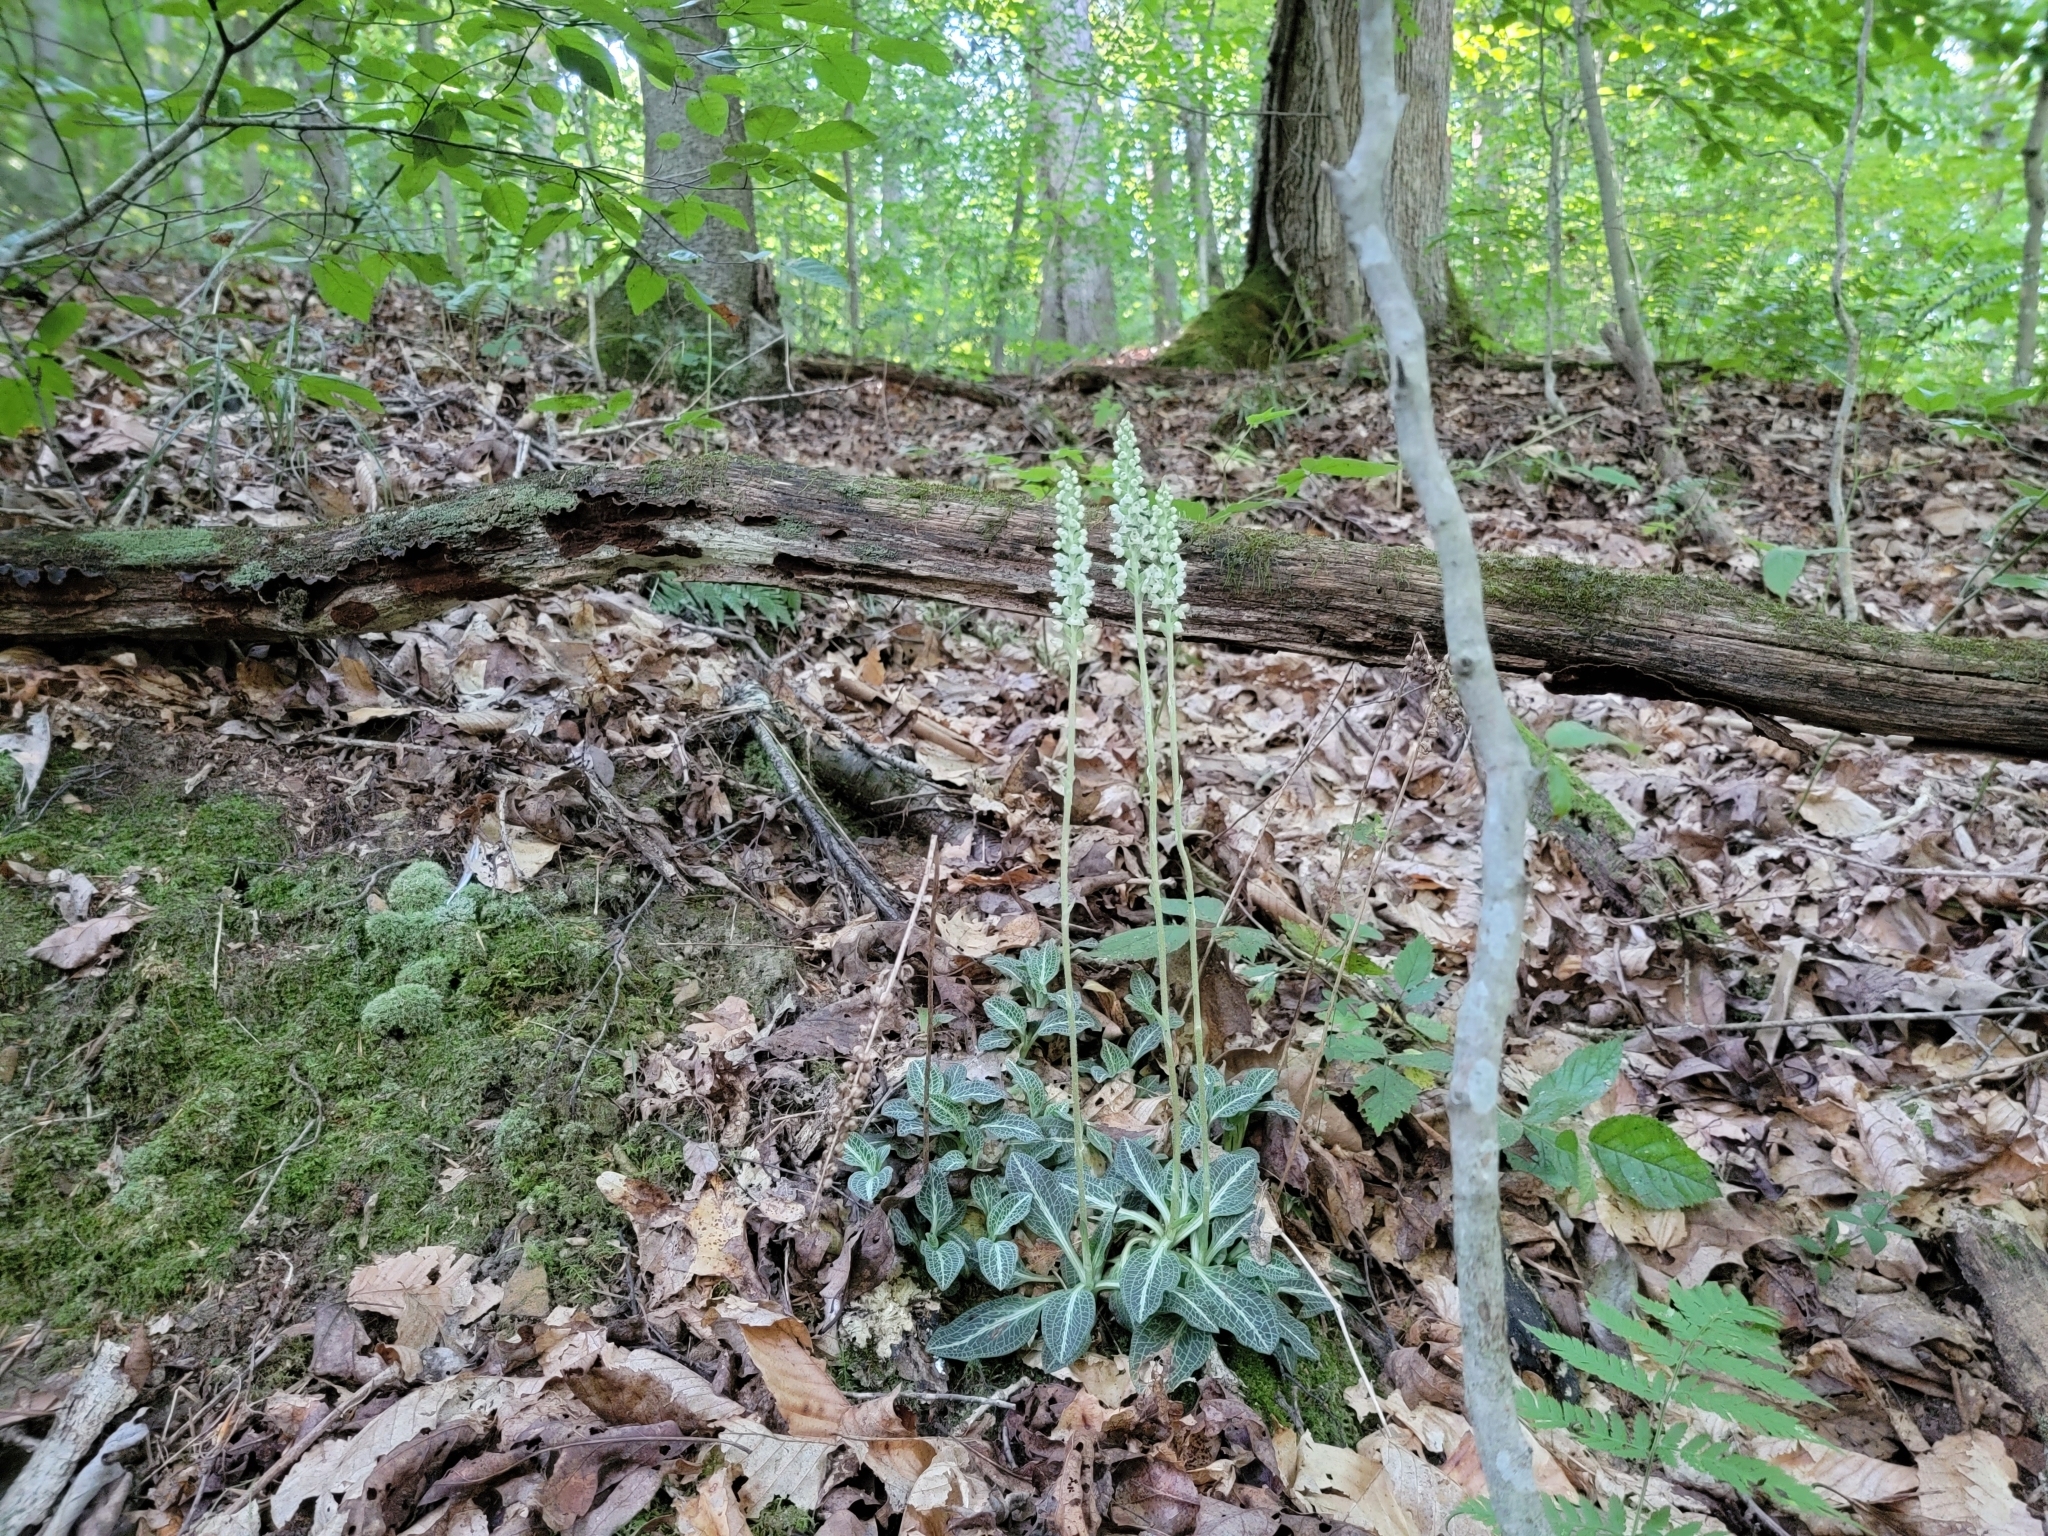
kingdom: Plantae
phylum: Tracheophyta
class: Liliopsida
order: Asparagales
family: Orchidaceae
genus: Goodyera
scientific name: Goodyera pubescens
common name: Downy rattlesnake-plantain
